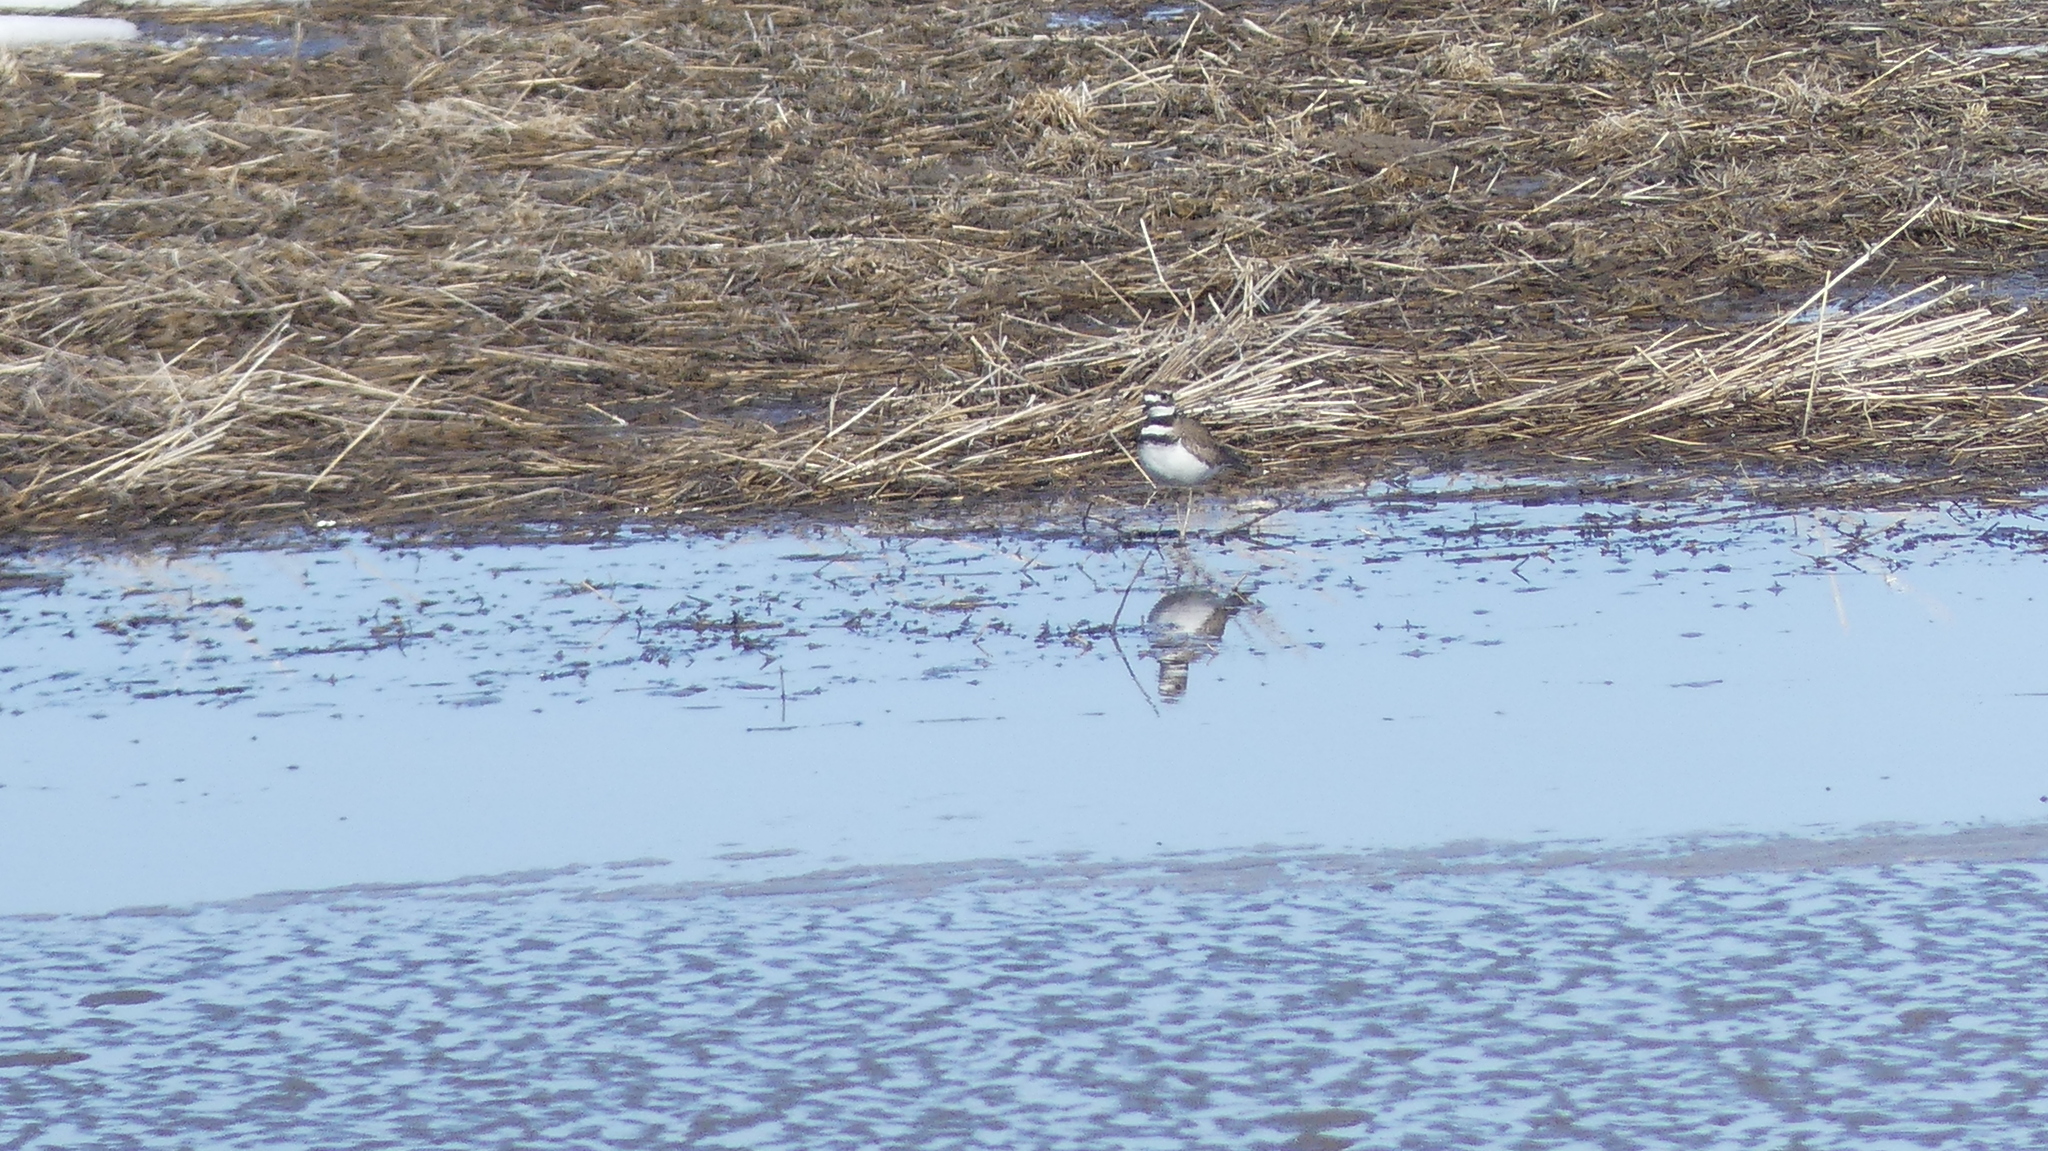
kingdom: Animalia
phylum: Chordata
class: Aves
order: Charadriiformes
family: Charadriidae
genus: Charadrius
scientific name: Charadrius vociferus
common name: Killdeer
